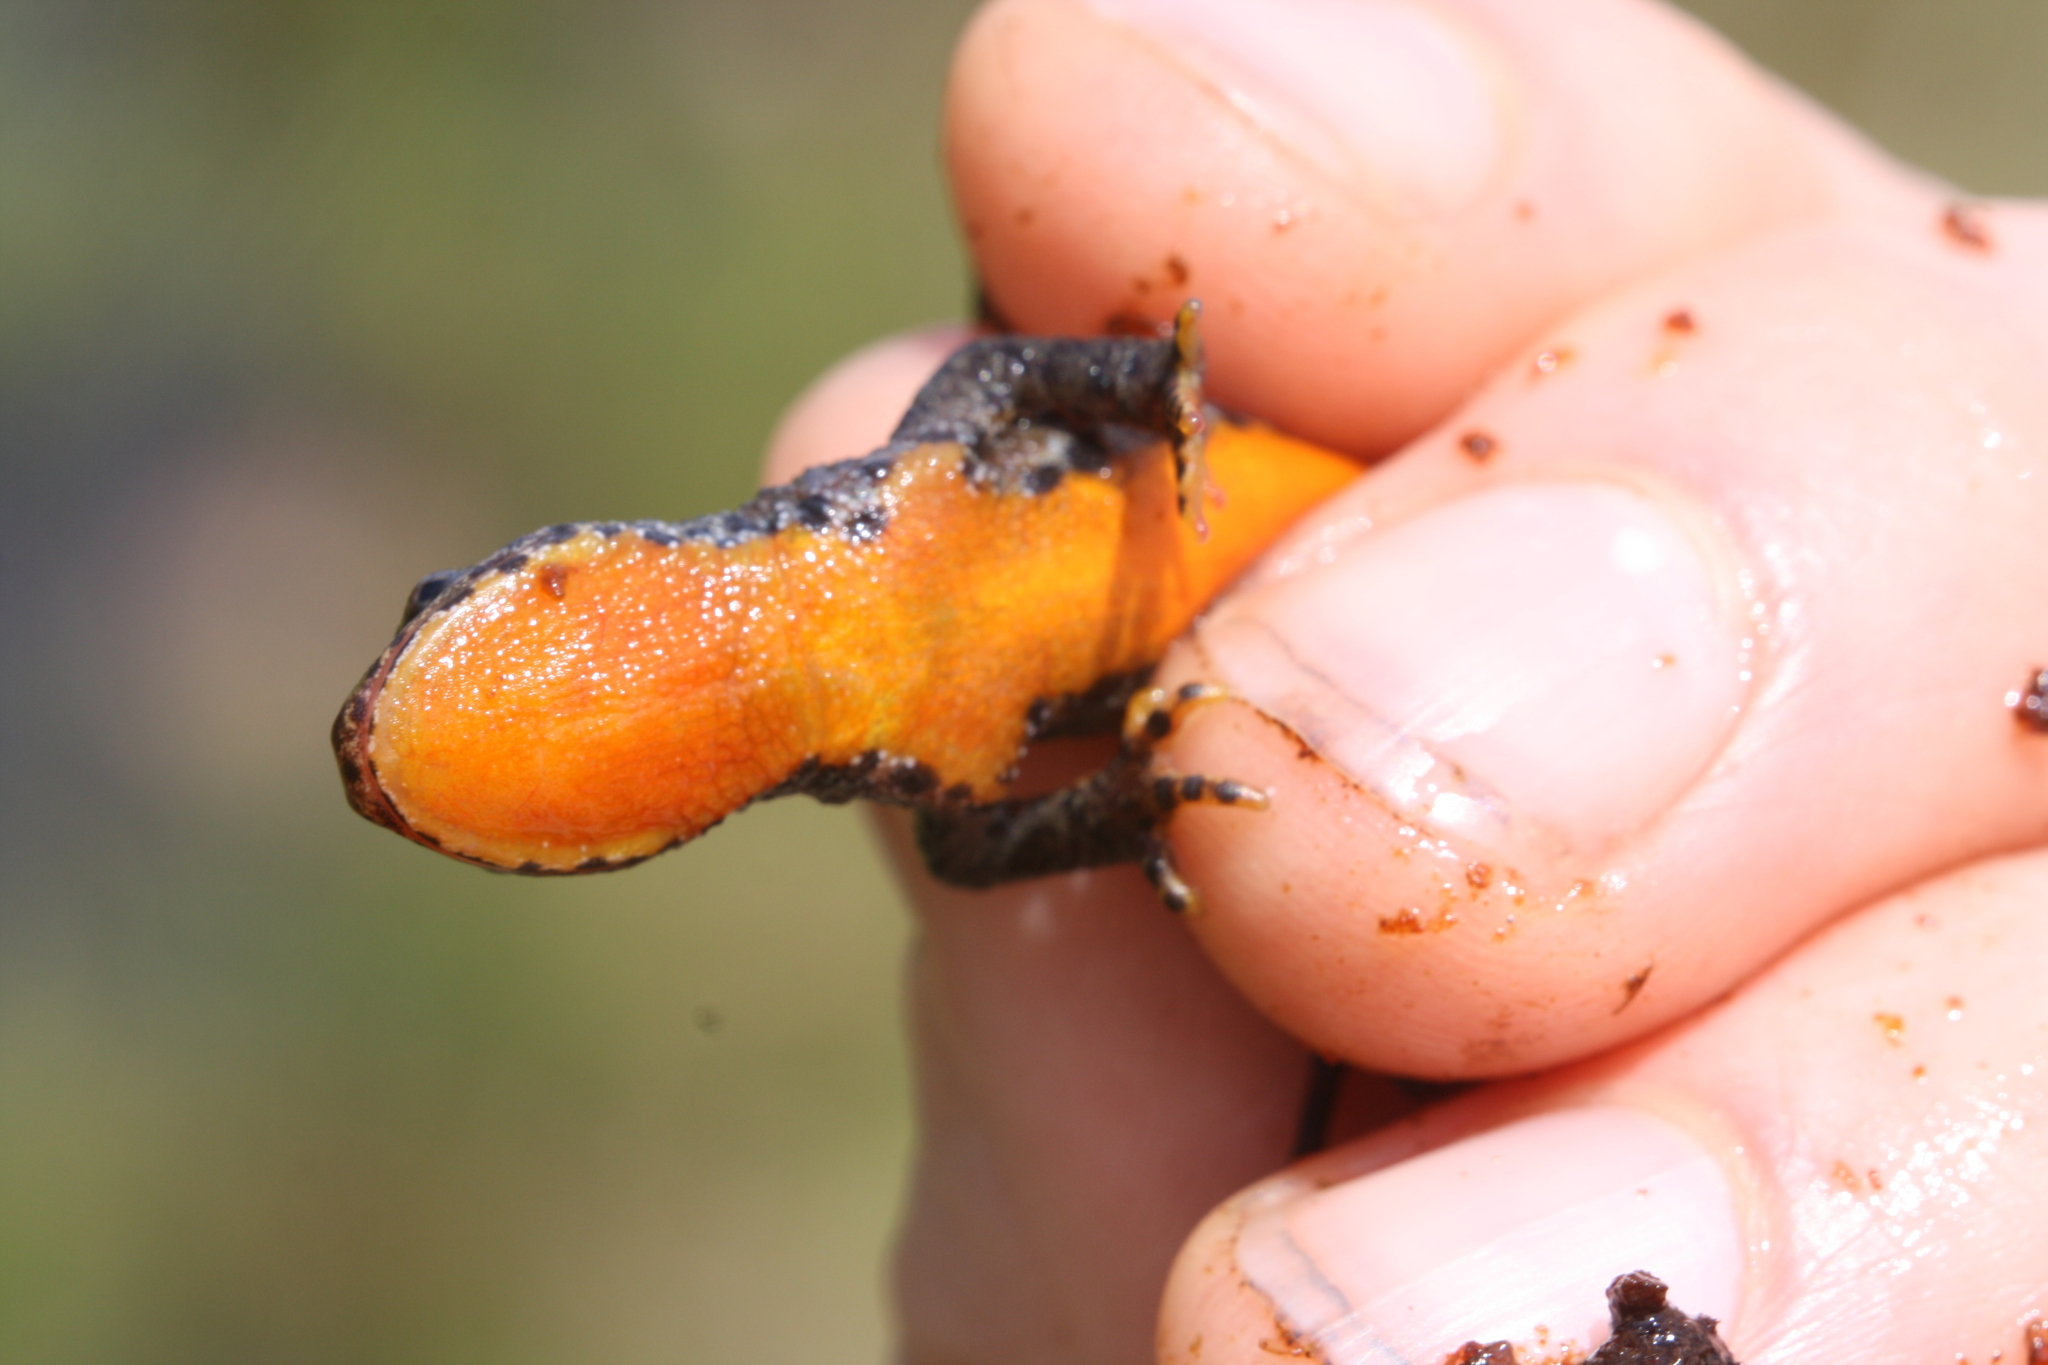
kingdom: Animalia
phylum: Chordata
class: Amphibia
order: Caudata
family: Salamandridae
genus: Ichthyosaura
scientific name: Ichthyosaura alpestris
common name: Alpine newt
